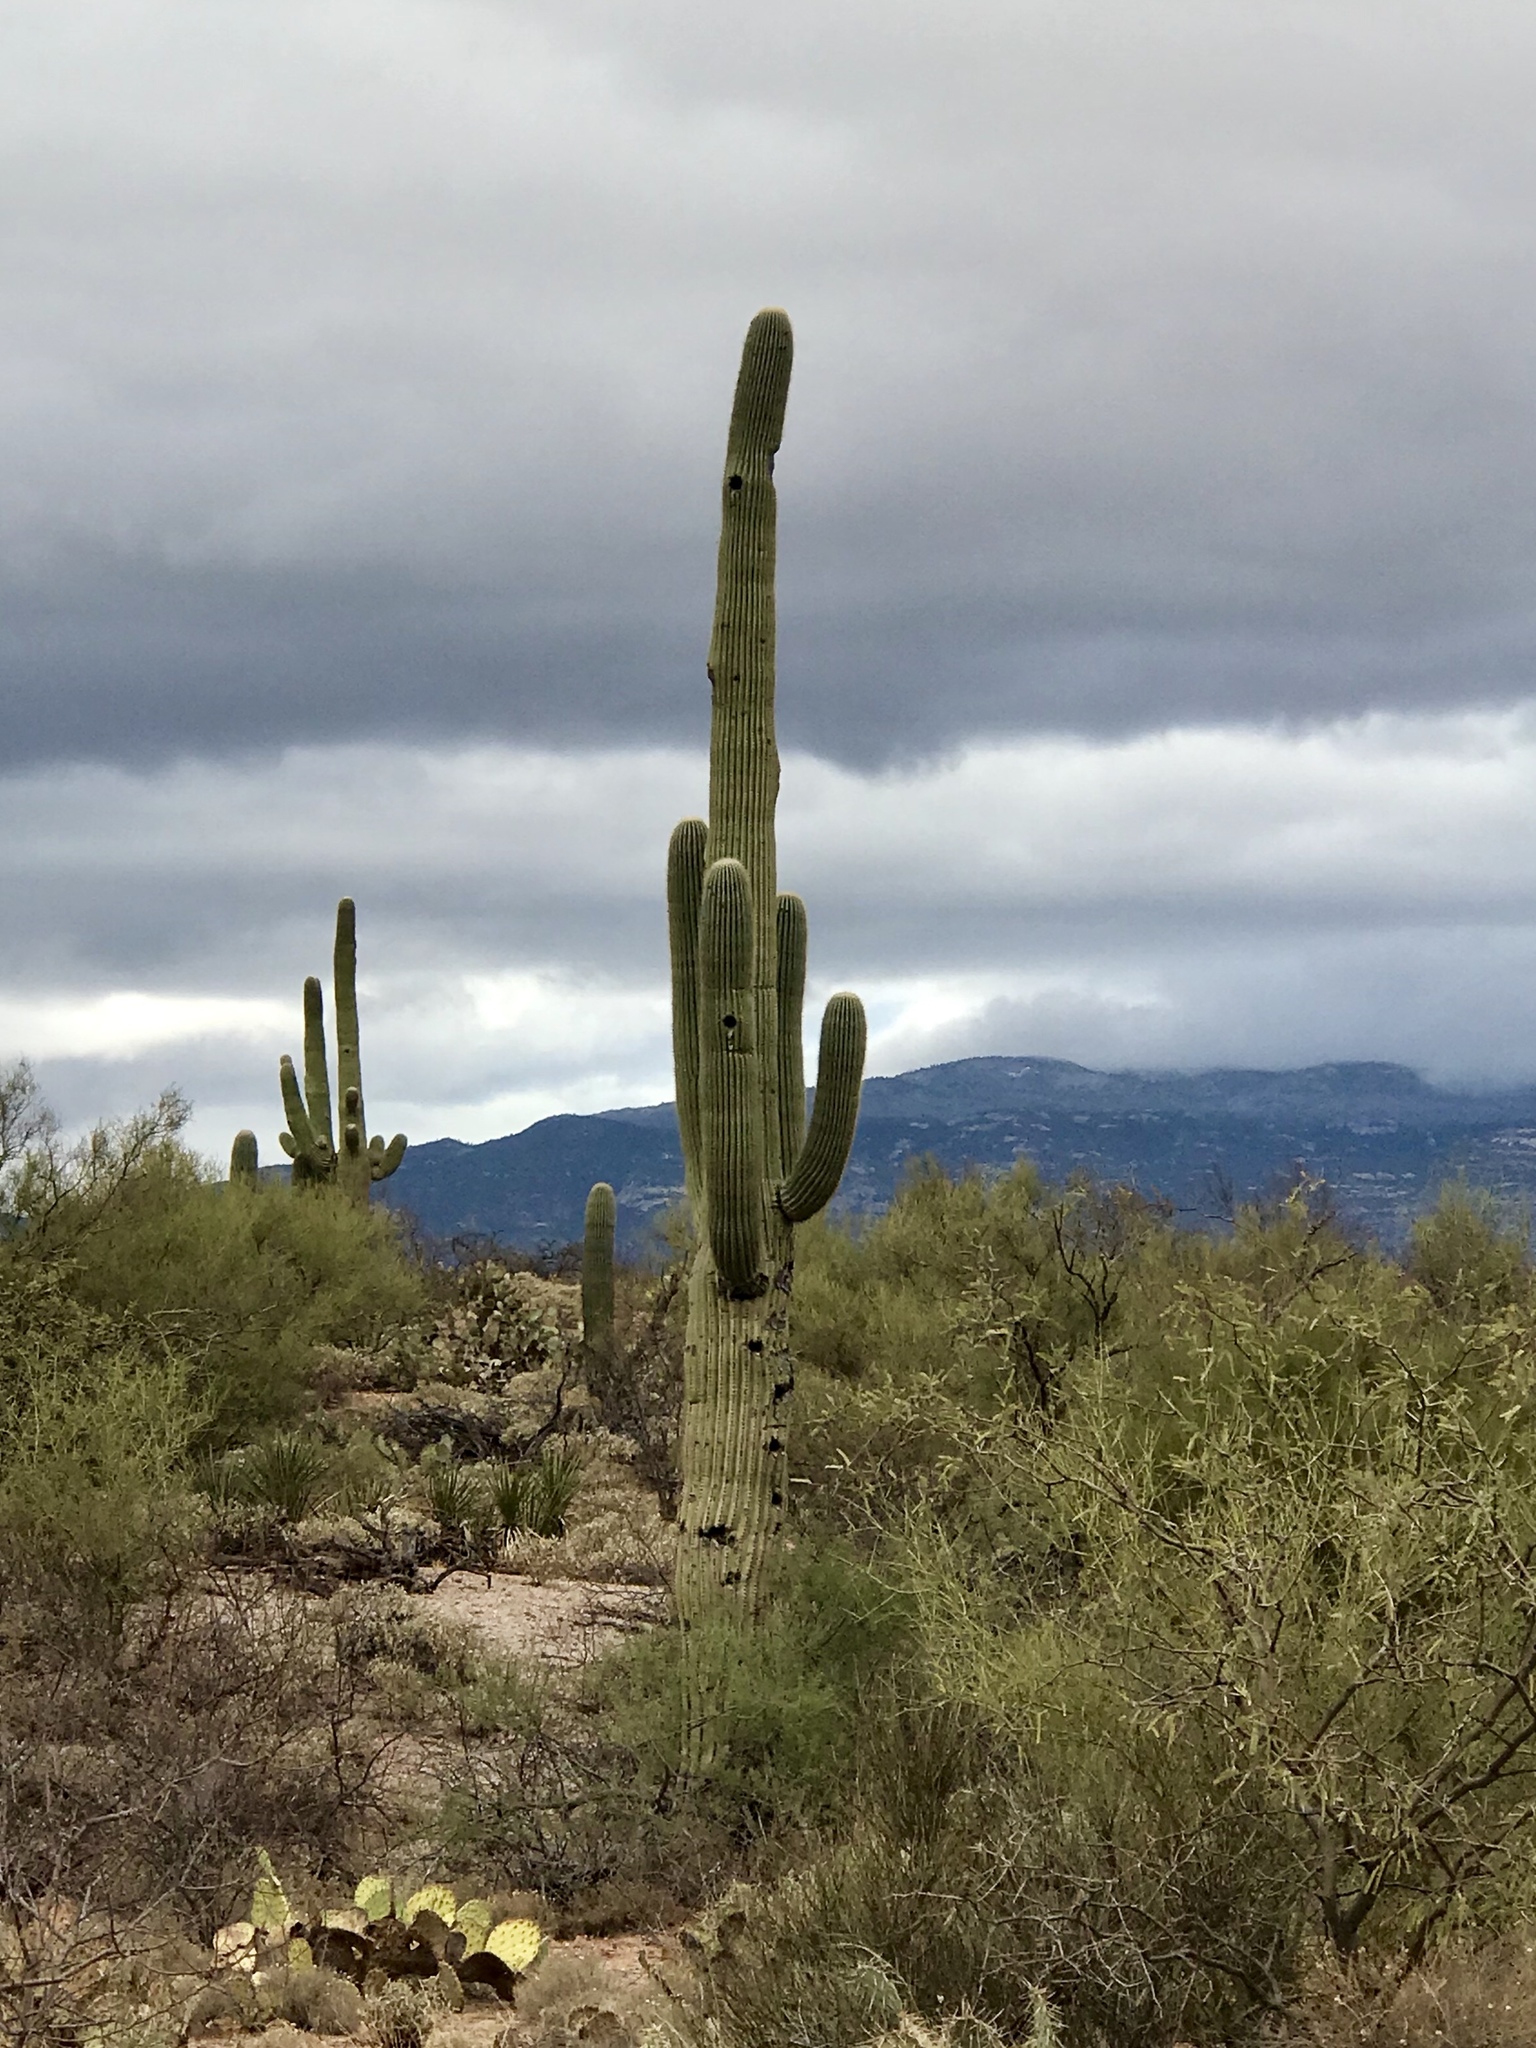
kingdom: Plantae
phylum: Tracheophyta
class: Magnoliopsida
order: Caryophyllales
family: Cactaceae
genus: Carnegiea
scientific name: Carnegiea gigantea
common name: Saguaro
